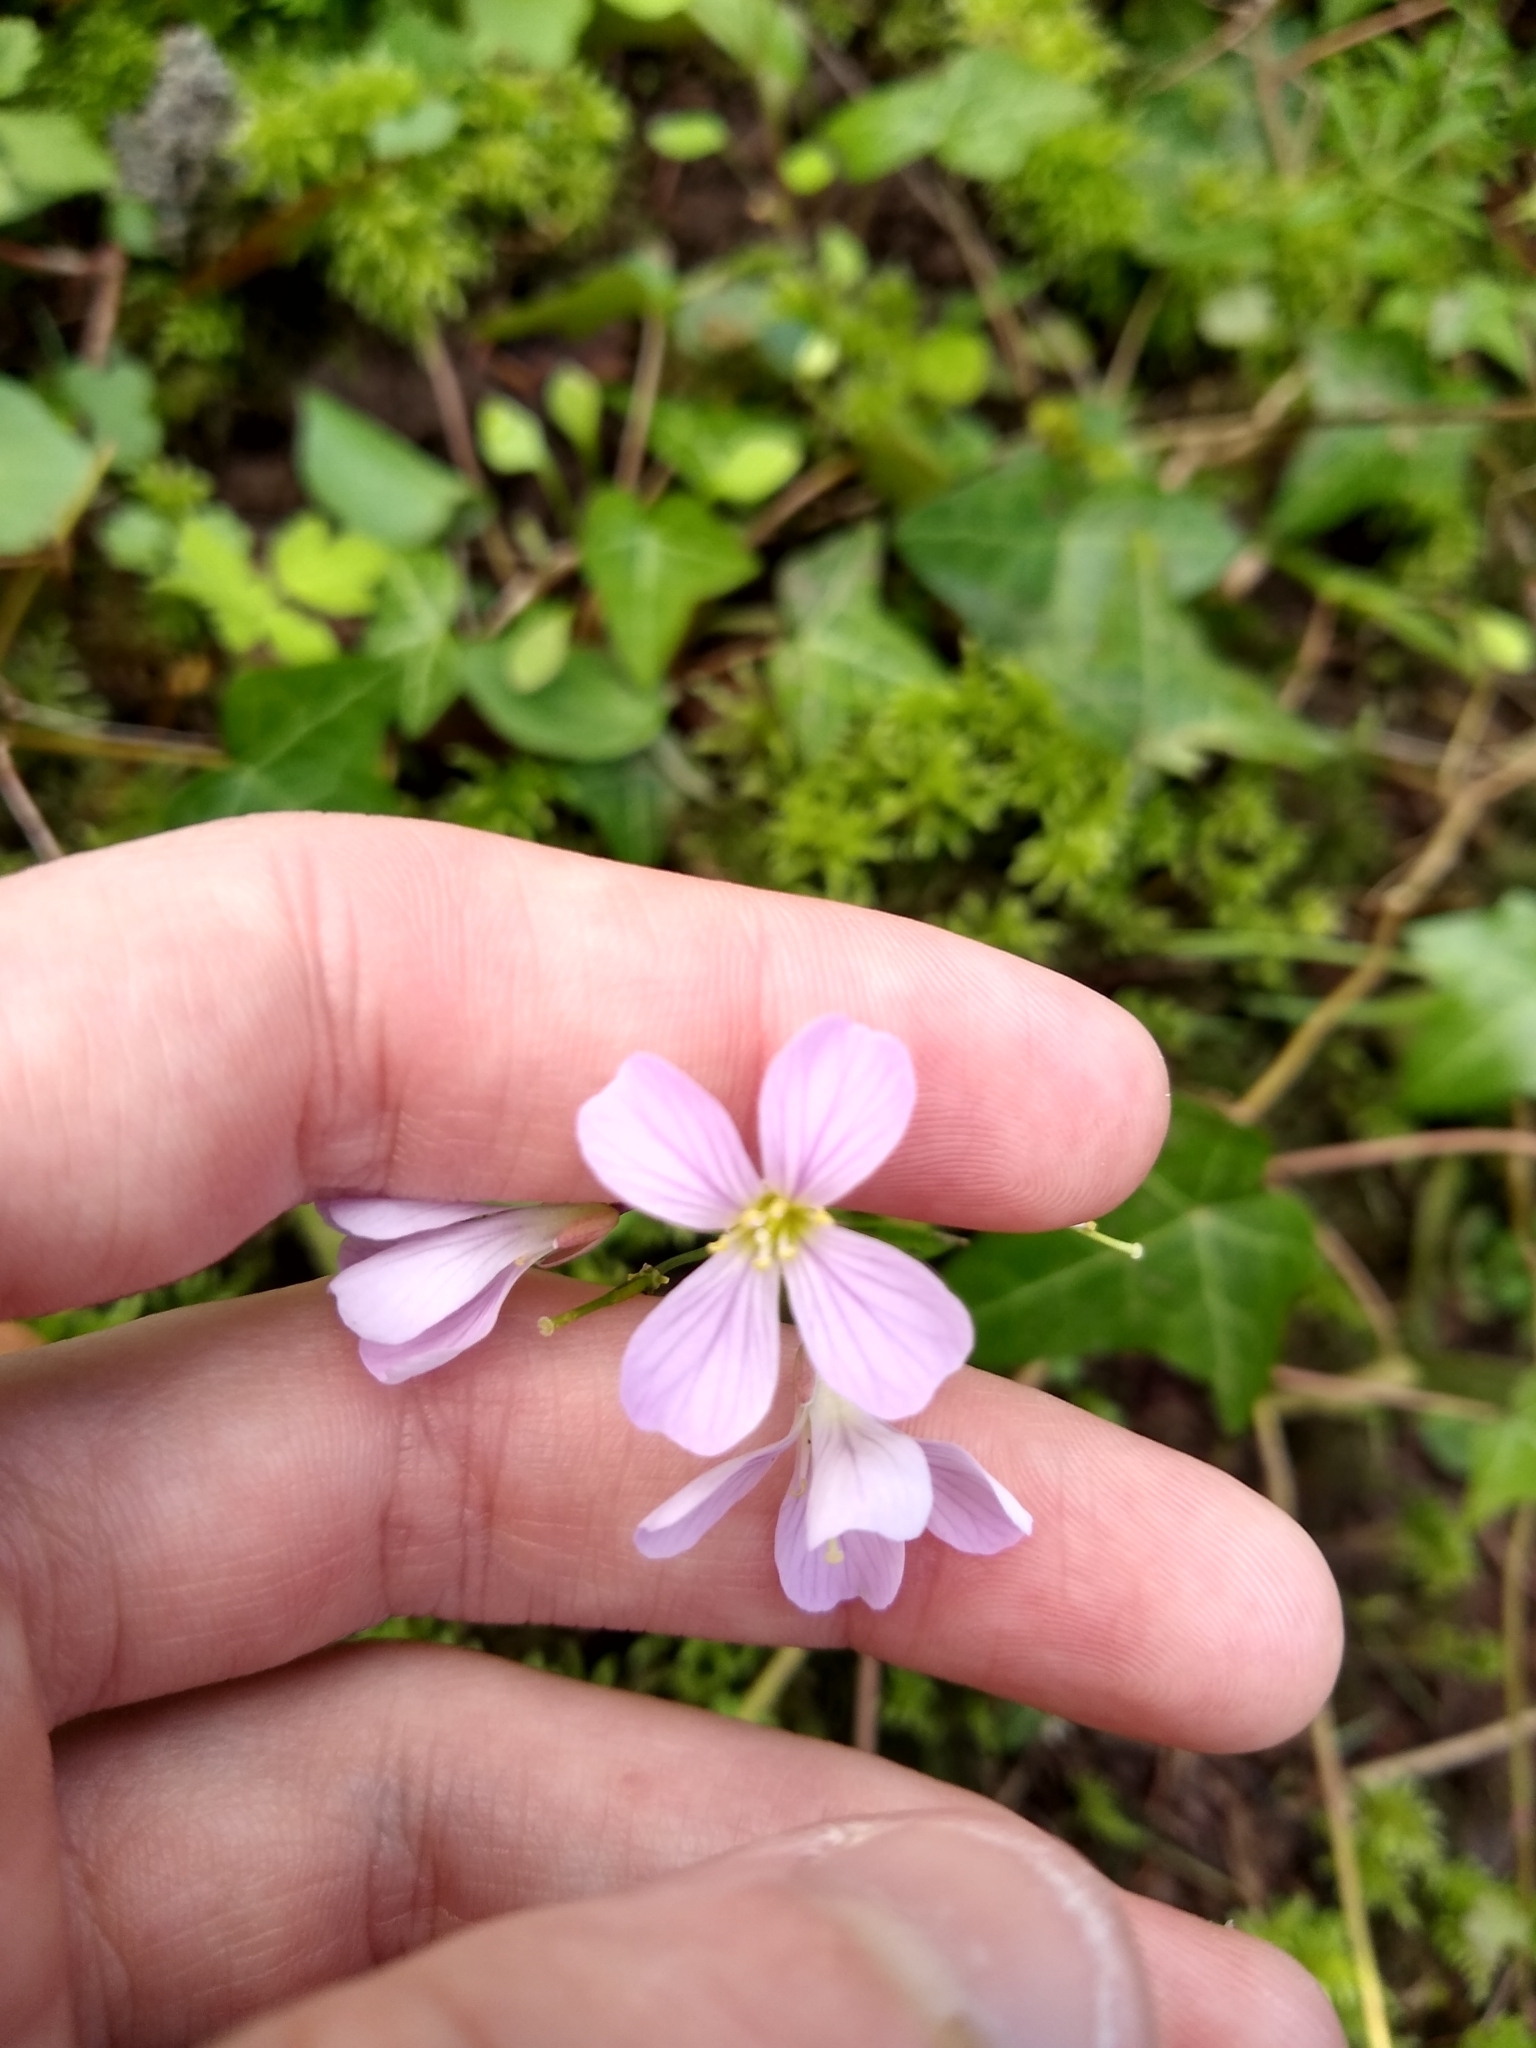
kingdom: Plantae
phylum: Tracheophyta
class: Magnoliopsida
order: Brassicales
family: Brassicaceae
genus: Cardamine
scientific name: Cardamine nuttallii
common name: Nuttall's toothwort
